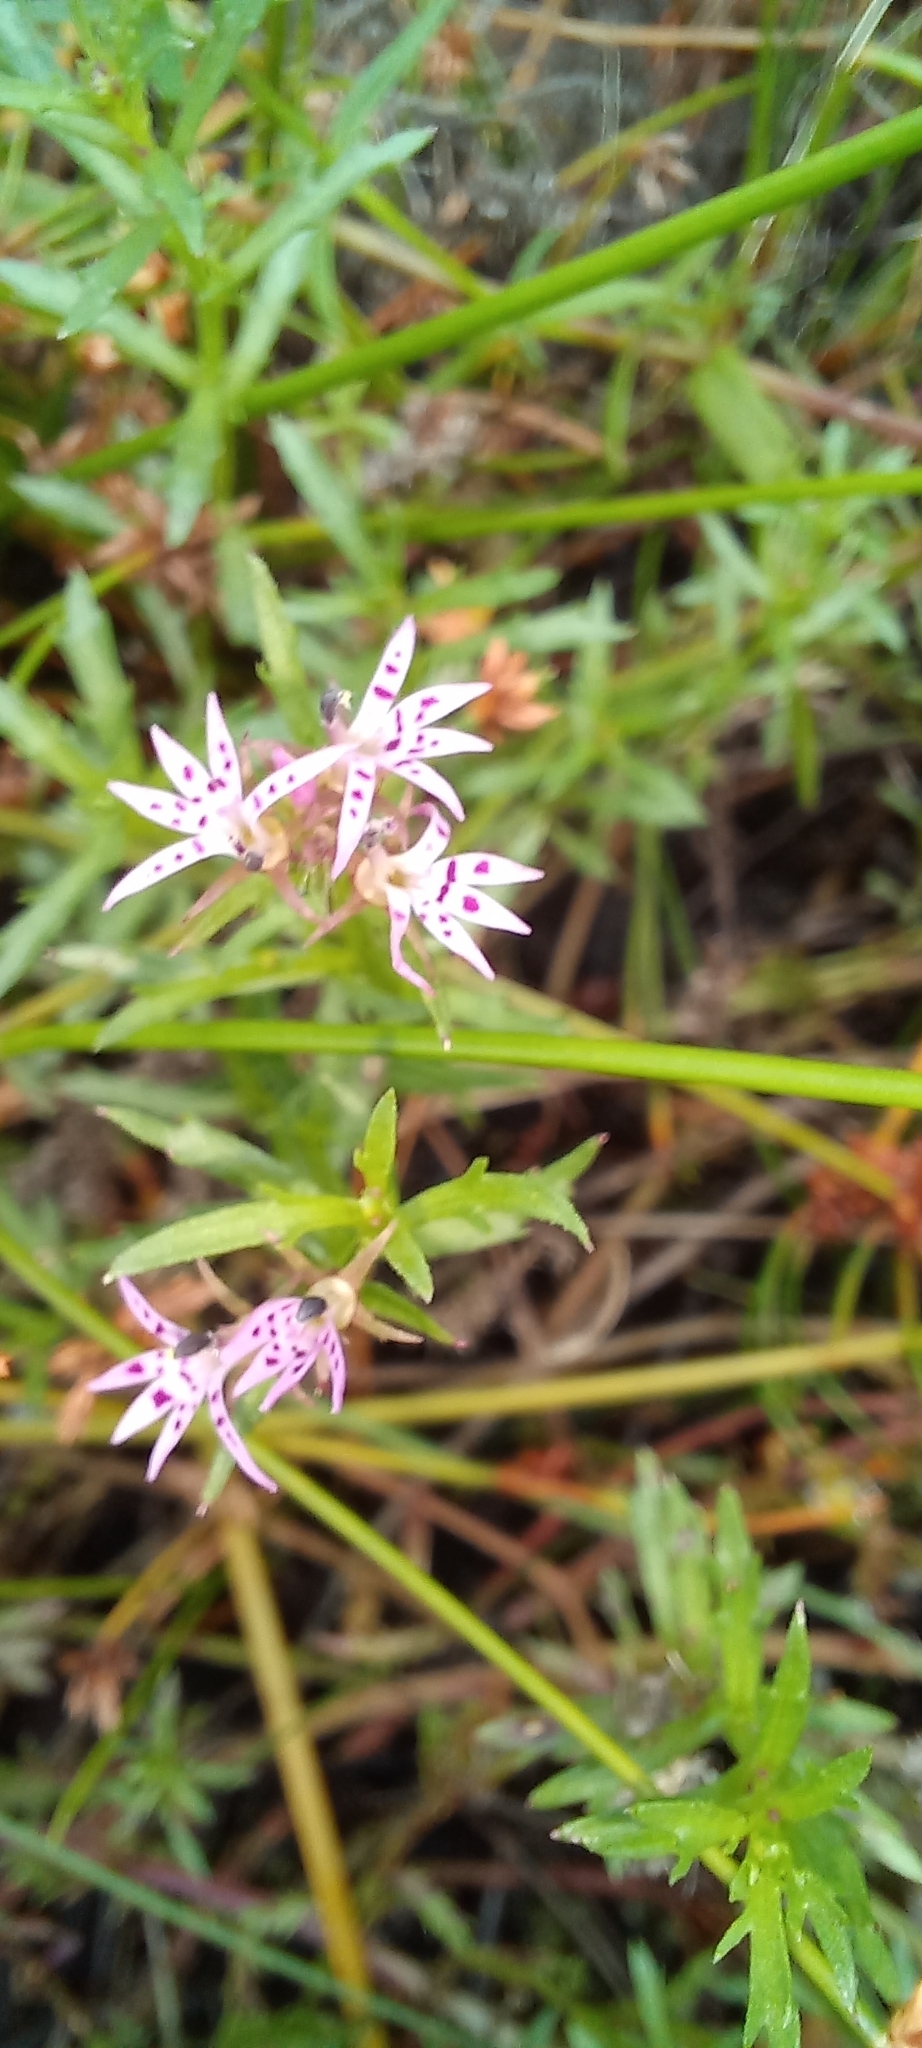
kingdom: Plantae
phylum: Tracheophyta
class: Magnoliopsida
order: Asterales
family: Campanulaceae
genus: Lobelia
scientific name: Lobelia jasionoides
